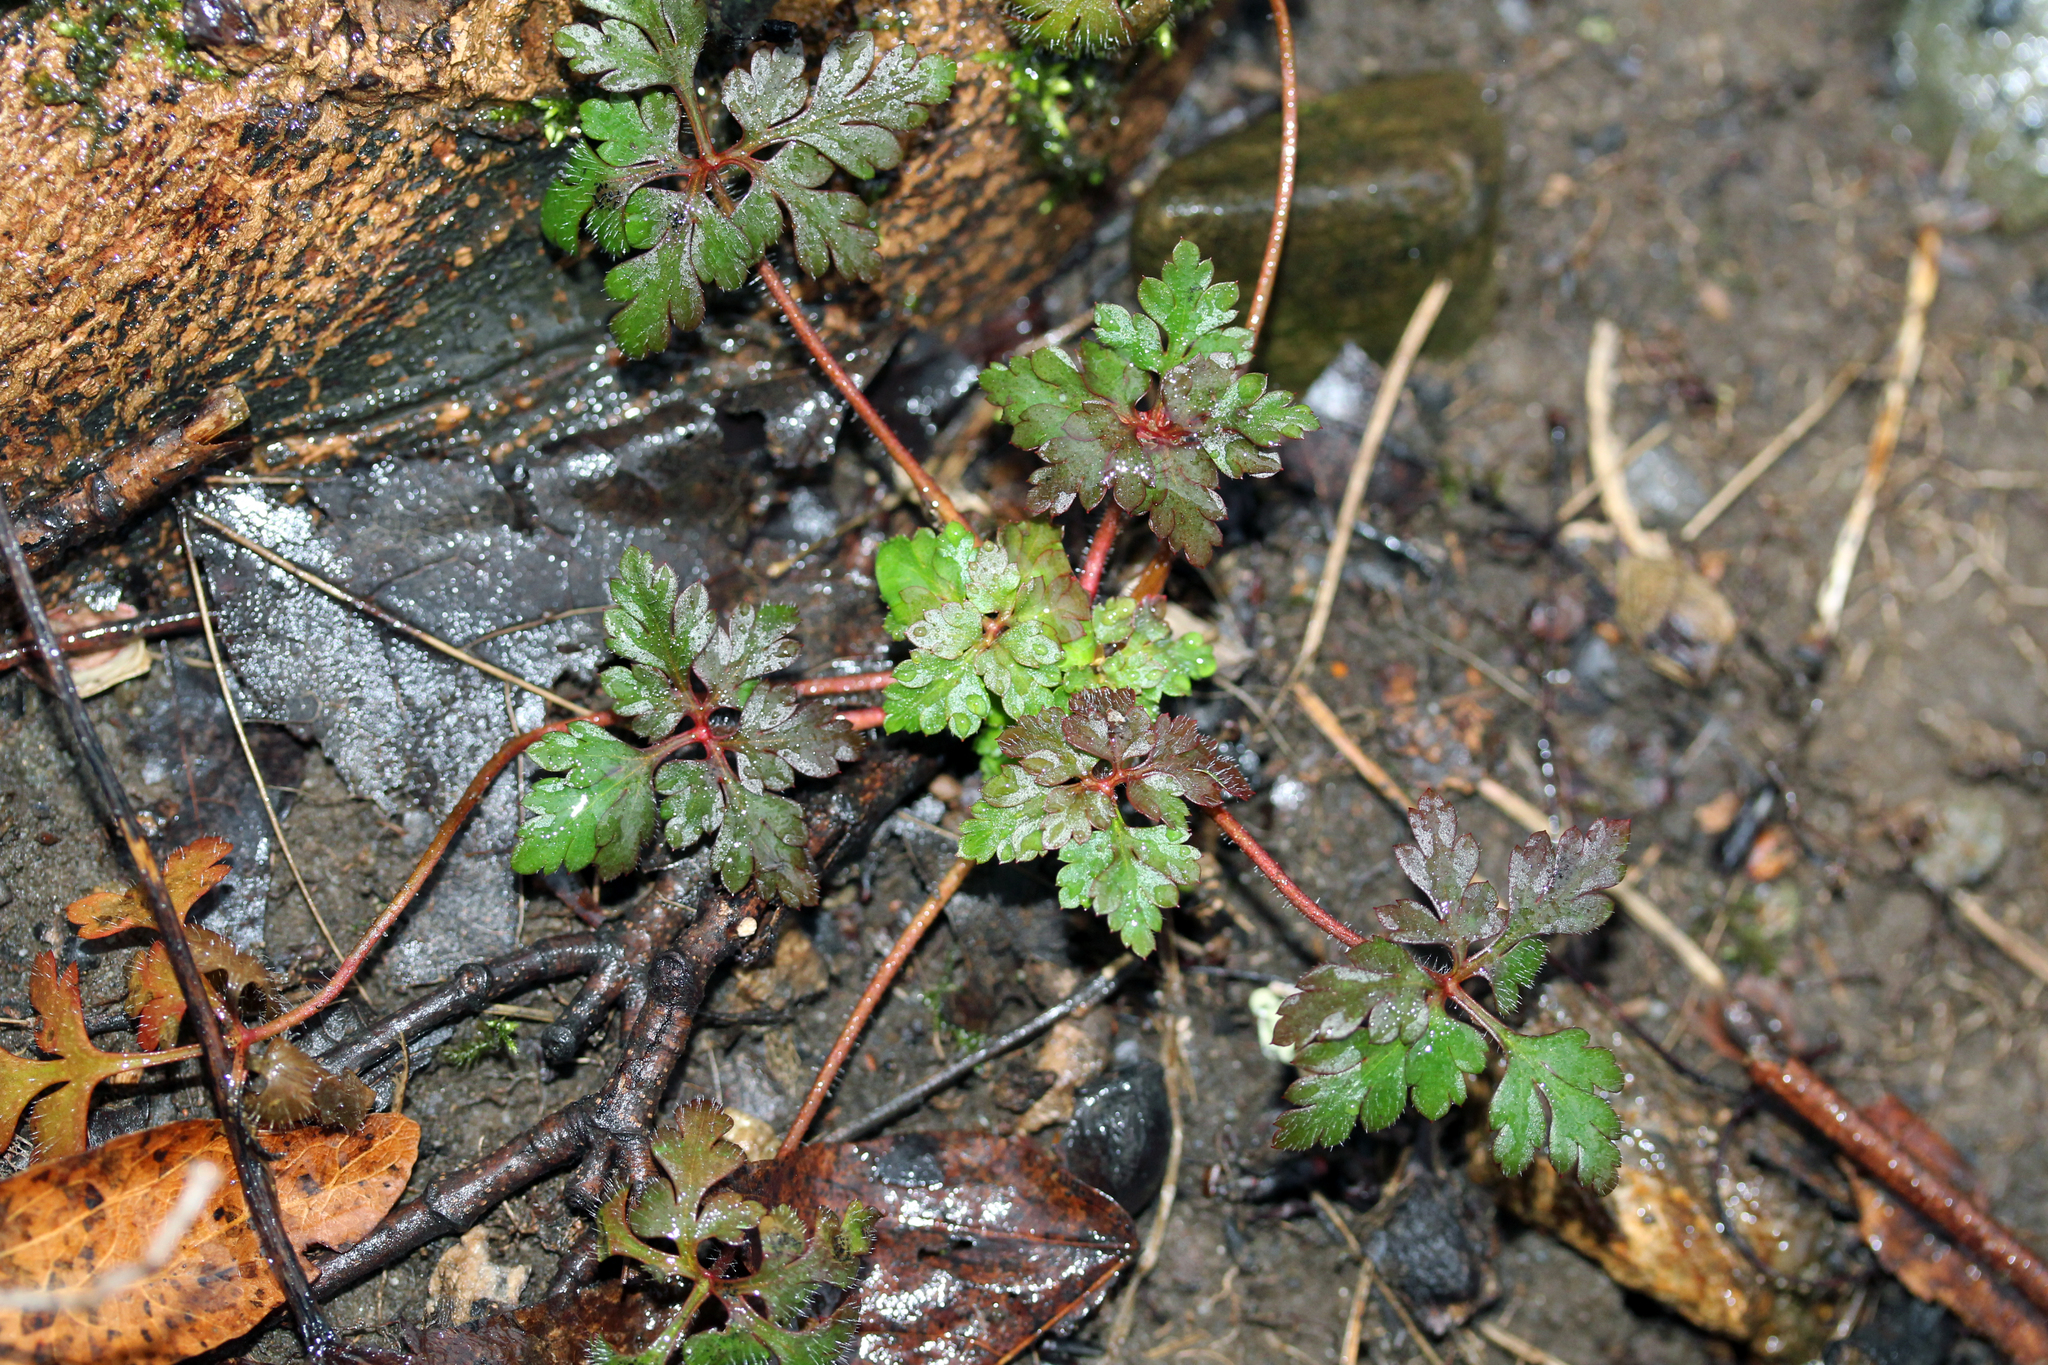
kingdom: Plantae
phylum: Tracheophyta
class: Magnoliopsida
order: Geraniales
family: Geraniaceae
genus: Geranium
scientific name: Geranium robertianum
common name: Herb-robert
